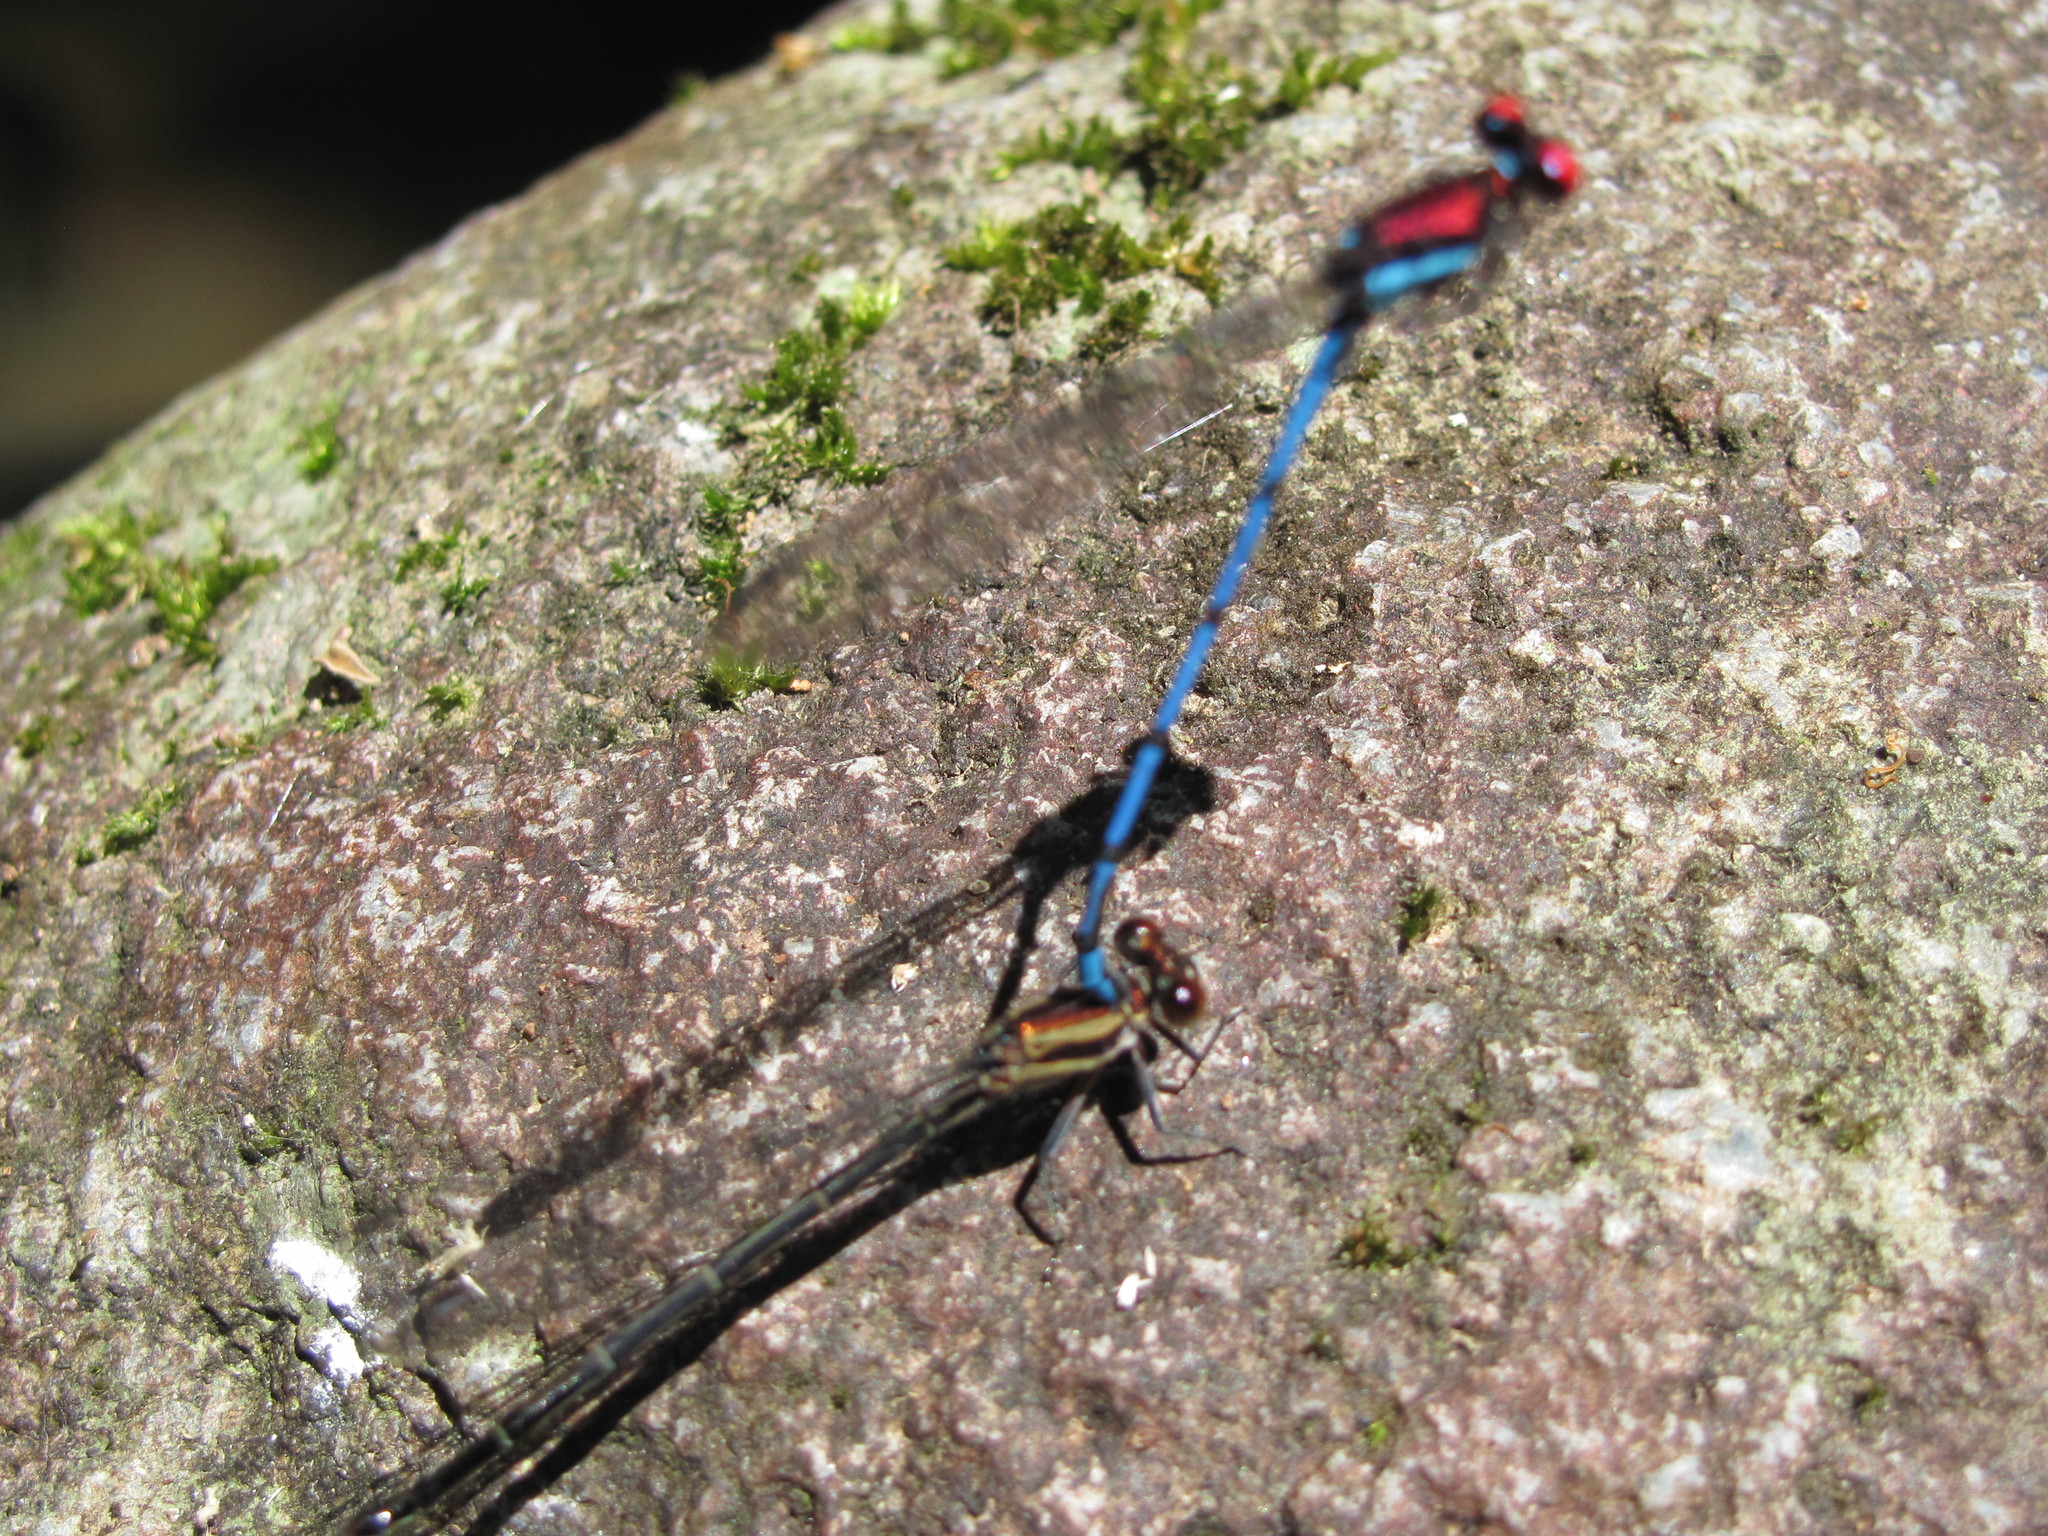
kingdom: Animalia
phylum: Arthropoda
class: Insecta
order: Odonata
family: Coenagrionidae
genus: Argia
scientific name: Argia cupraurea
